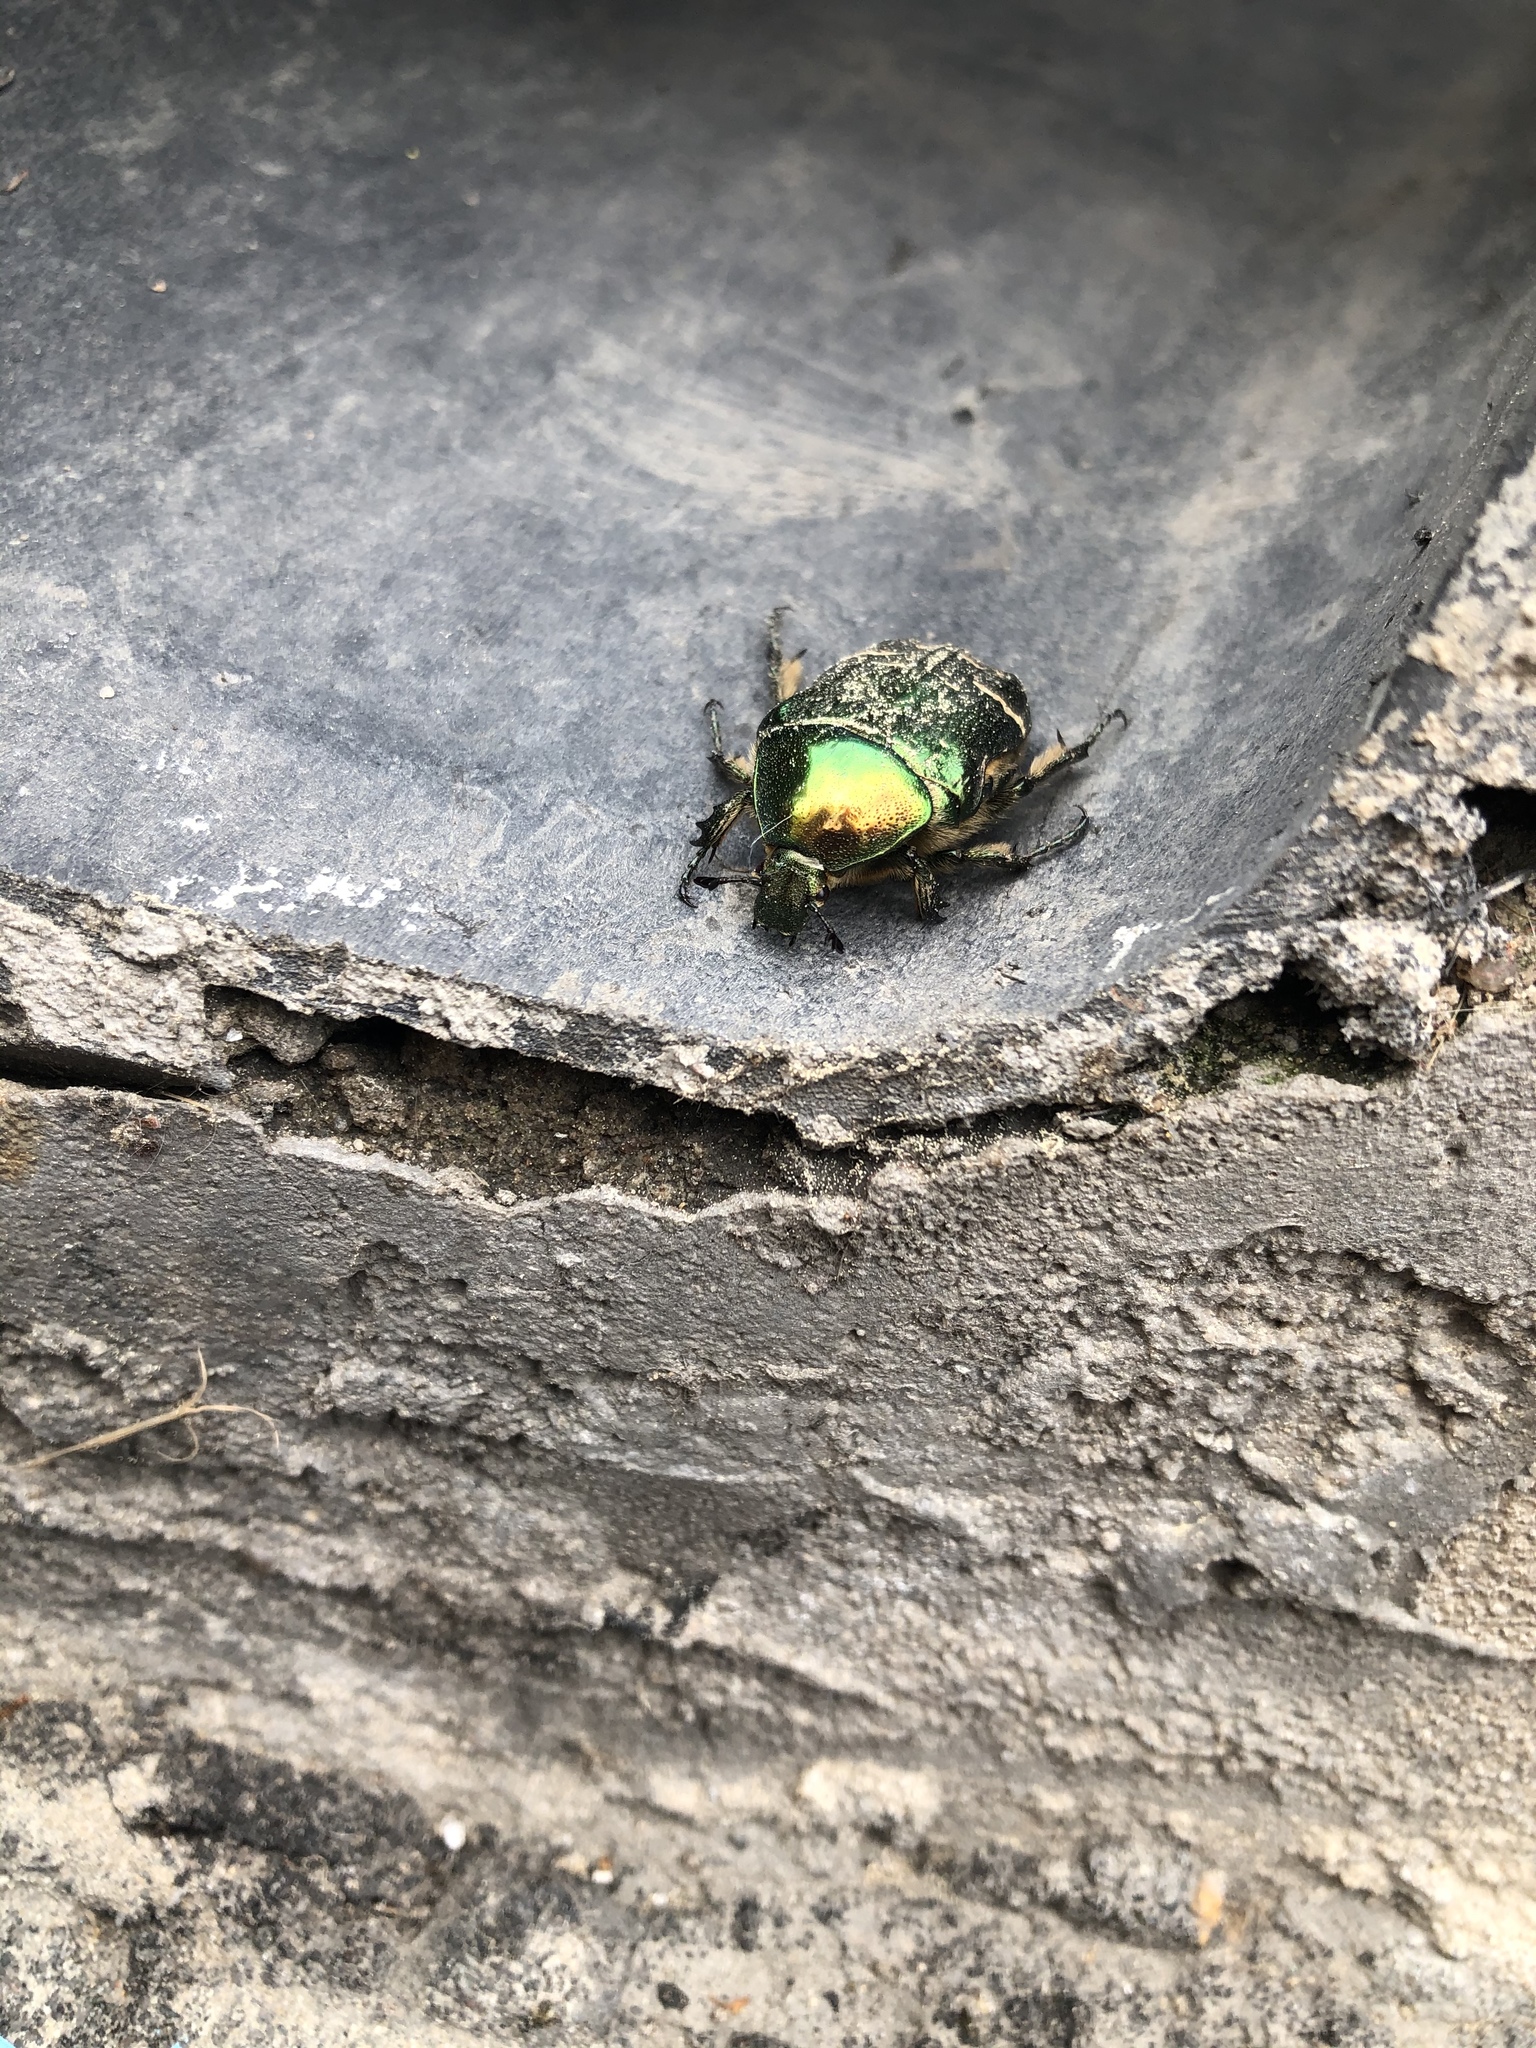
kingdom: Animalia
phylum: Arthropoda
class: Insecta
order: Coleoptera
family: Scarabaeidae
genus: Cetonia
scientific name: Cetonia aurata
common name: Rose chafer
